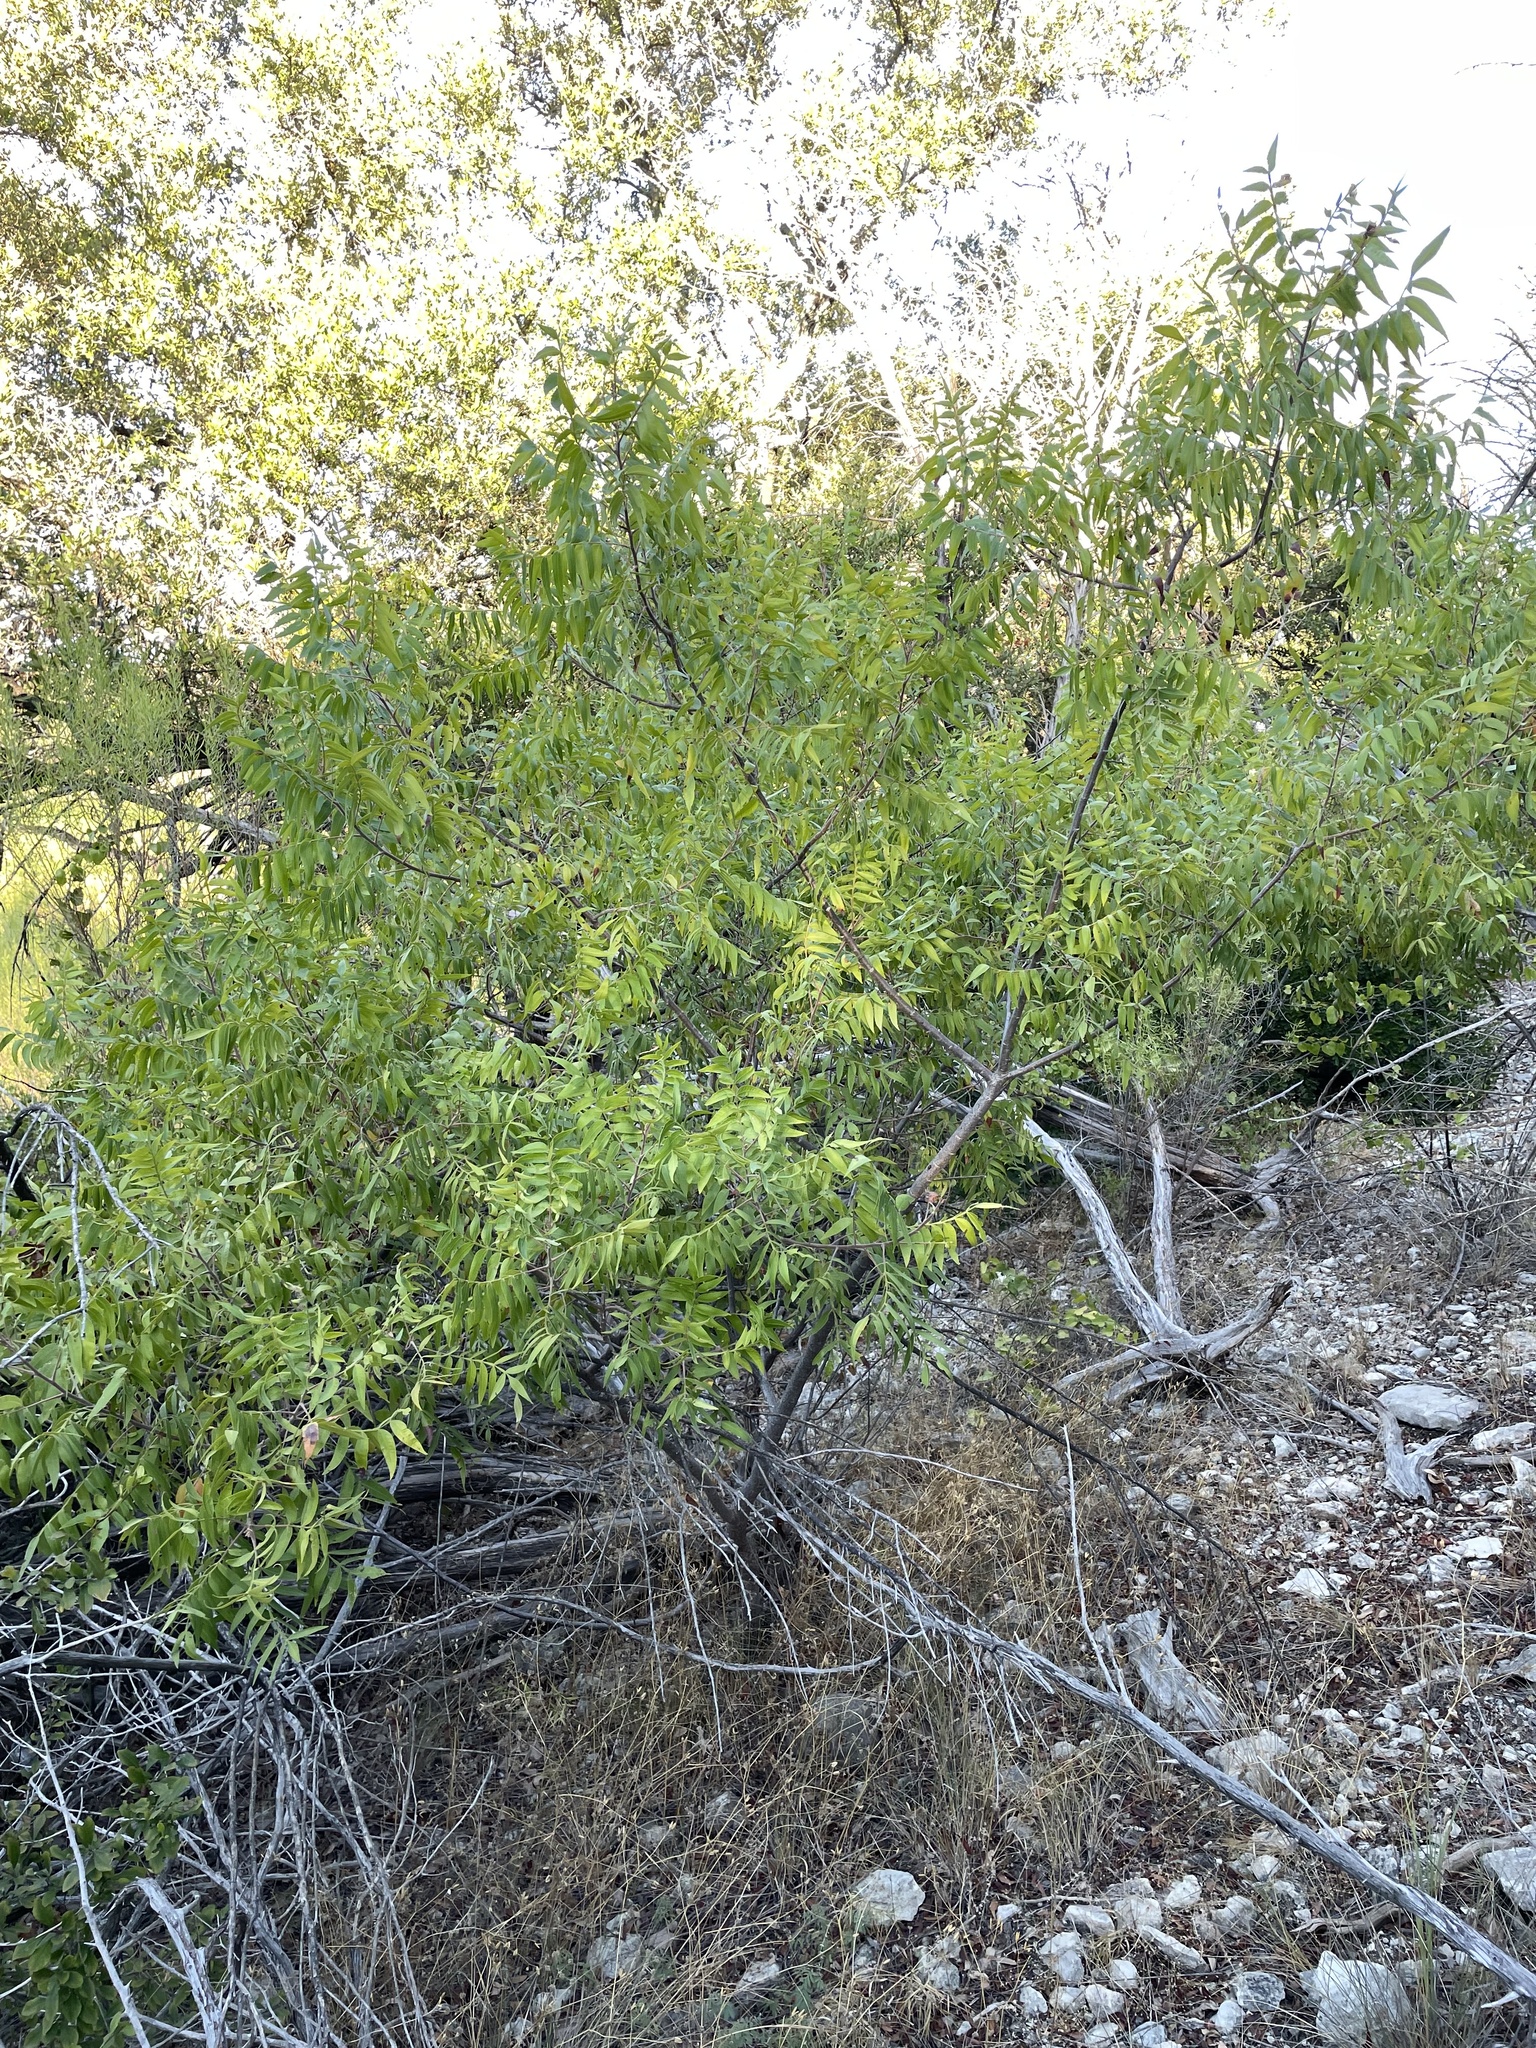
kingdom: Plantae
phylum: Tracheophyta
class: Magnoliopsida
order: Sapindales
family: Anacardiaceae
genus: Rhus
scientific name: Rhus lanceolata
